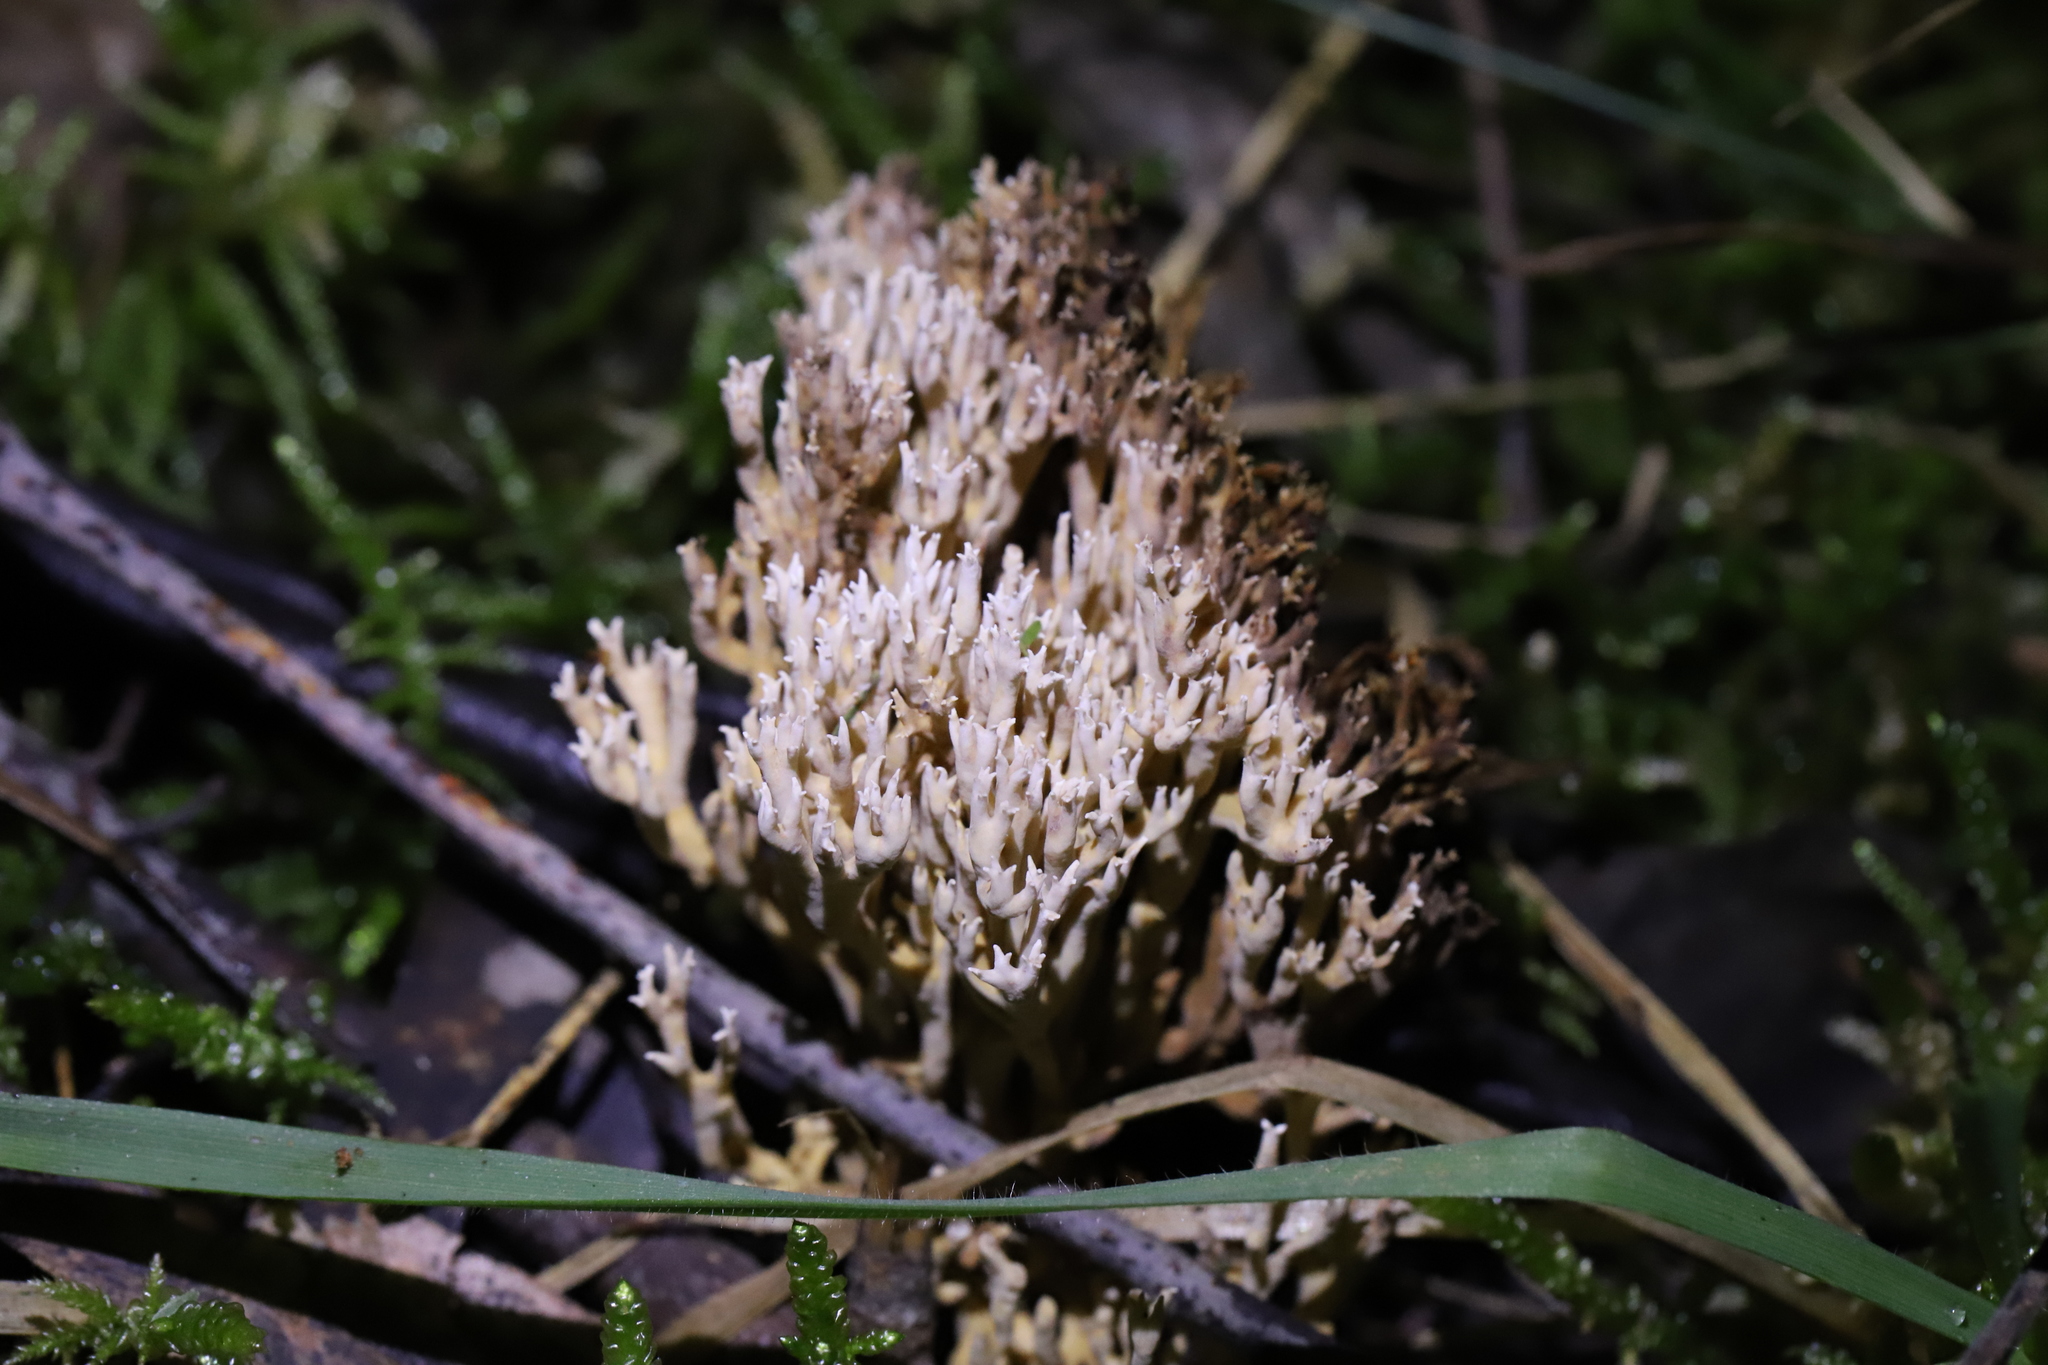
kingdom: Fungi
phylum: Basidiomycota
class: Agaricomycetes
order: Gomphales
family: Gomphaceae
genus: Ramaria
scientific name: Ramaria filicicola
